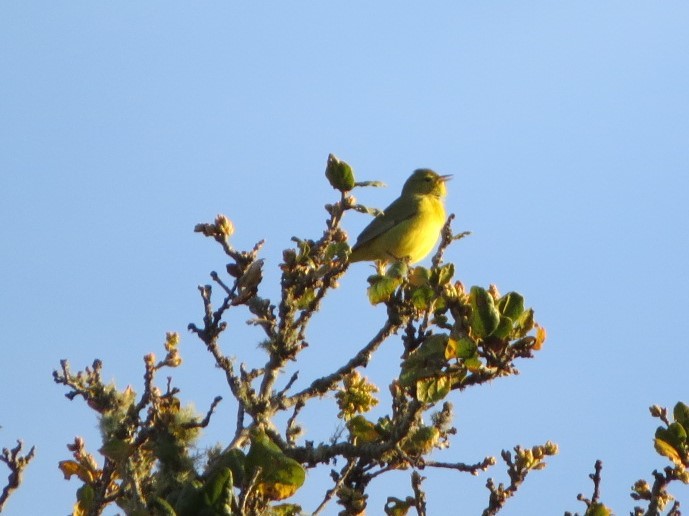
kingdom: Animalia
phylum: Chordata
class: Aves
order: Passeriformes
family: Parulidae
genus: Leiothlypis
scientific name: Leiothlypis celata
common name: Orange-crowned warbler
